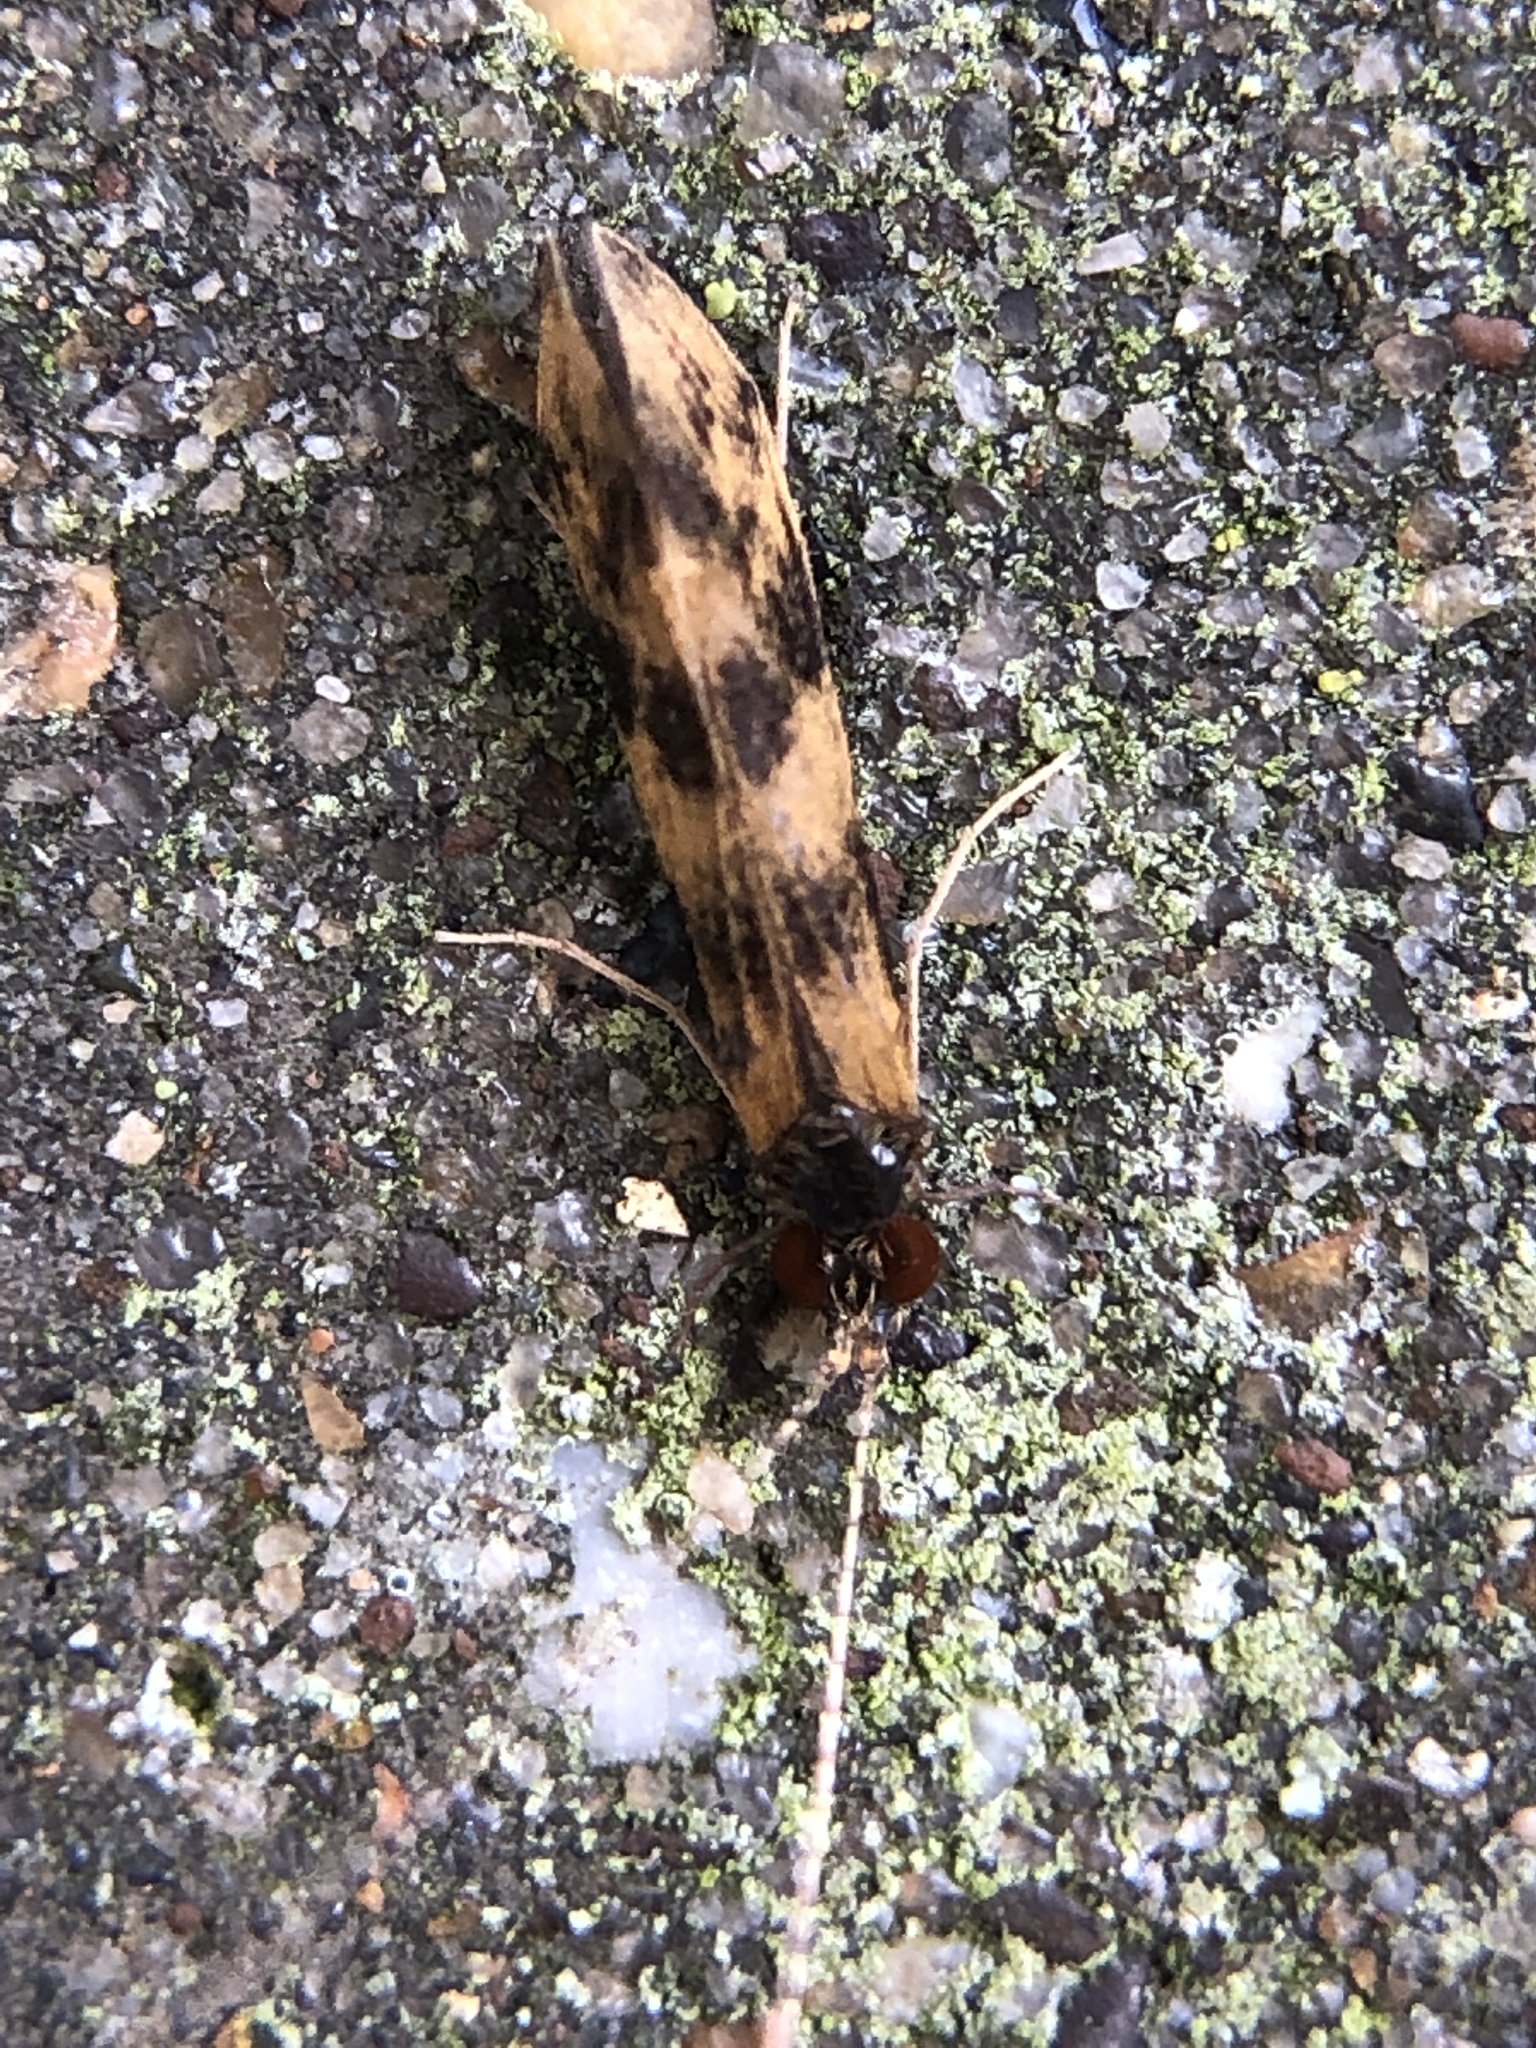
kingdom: Animalia
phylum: Arthropoda
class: Insecta
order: Trichoptera
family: Leptoceridae
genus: Mystacides
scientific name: Mystacides longicornis
